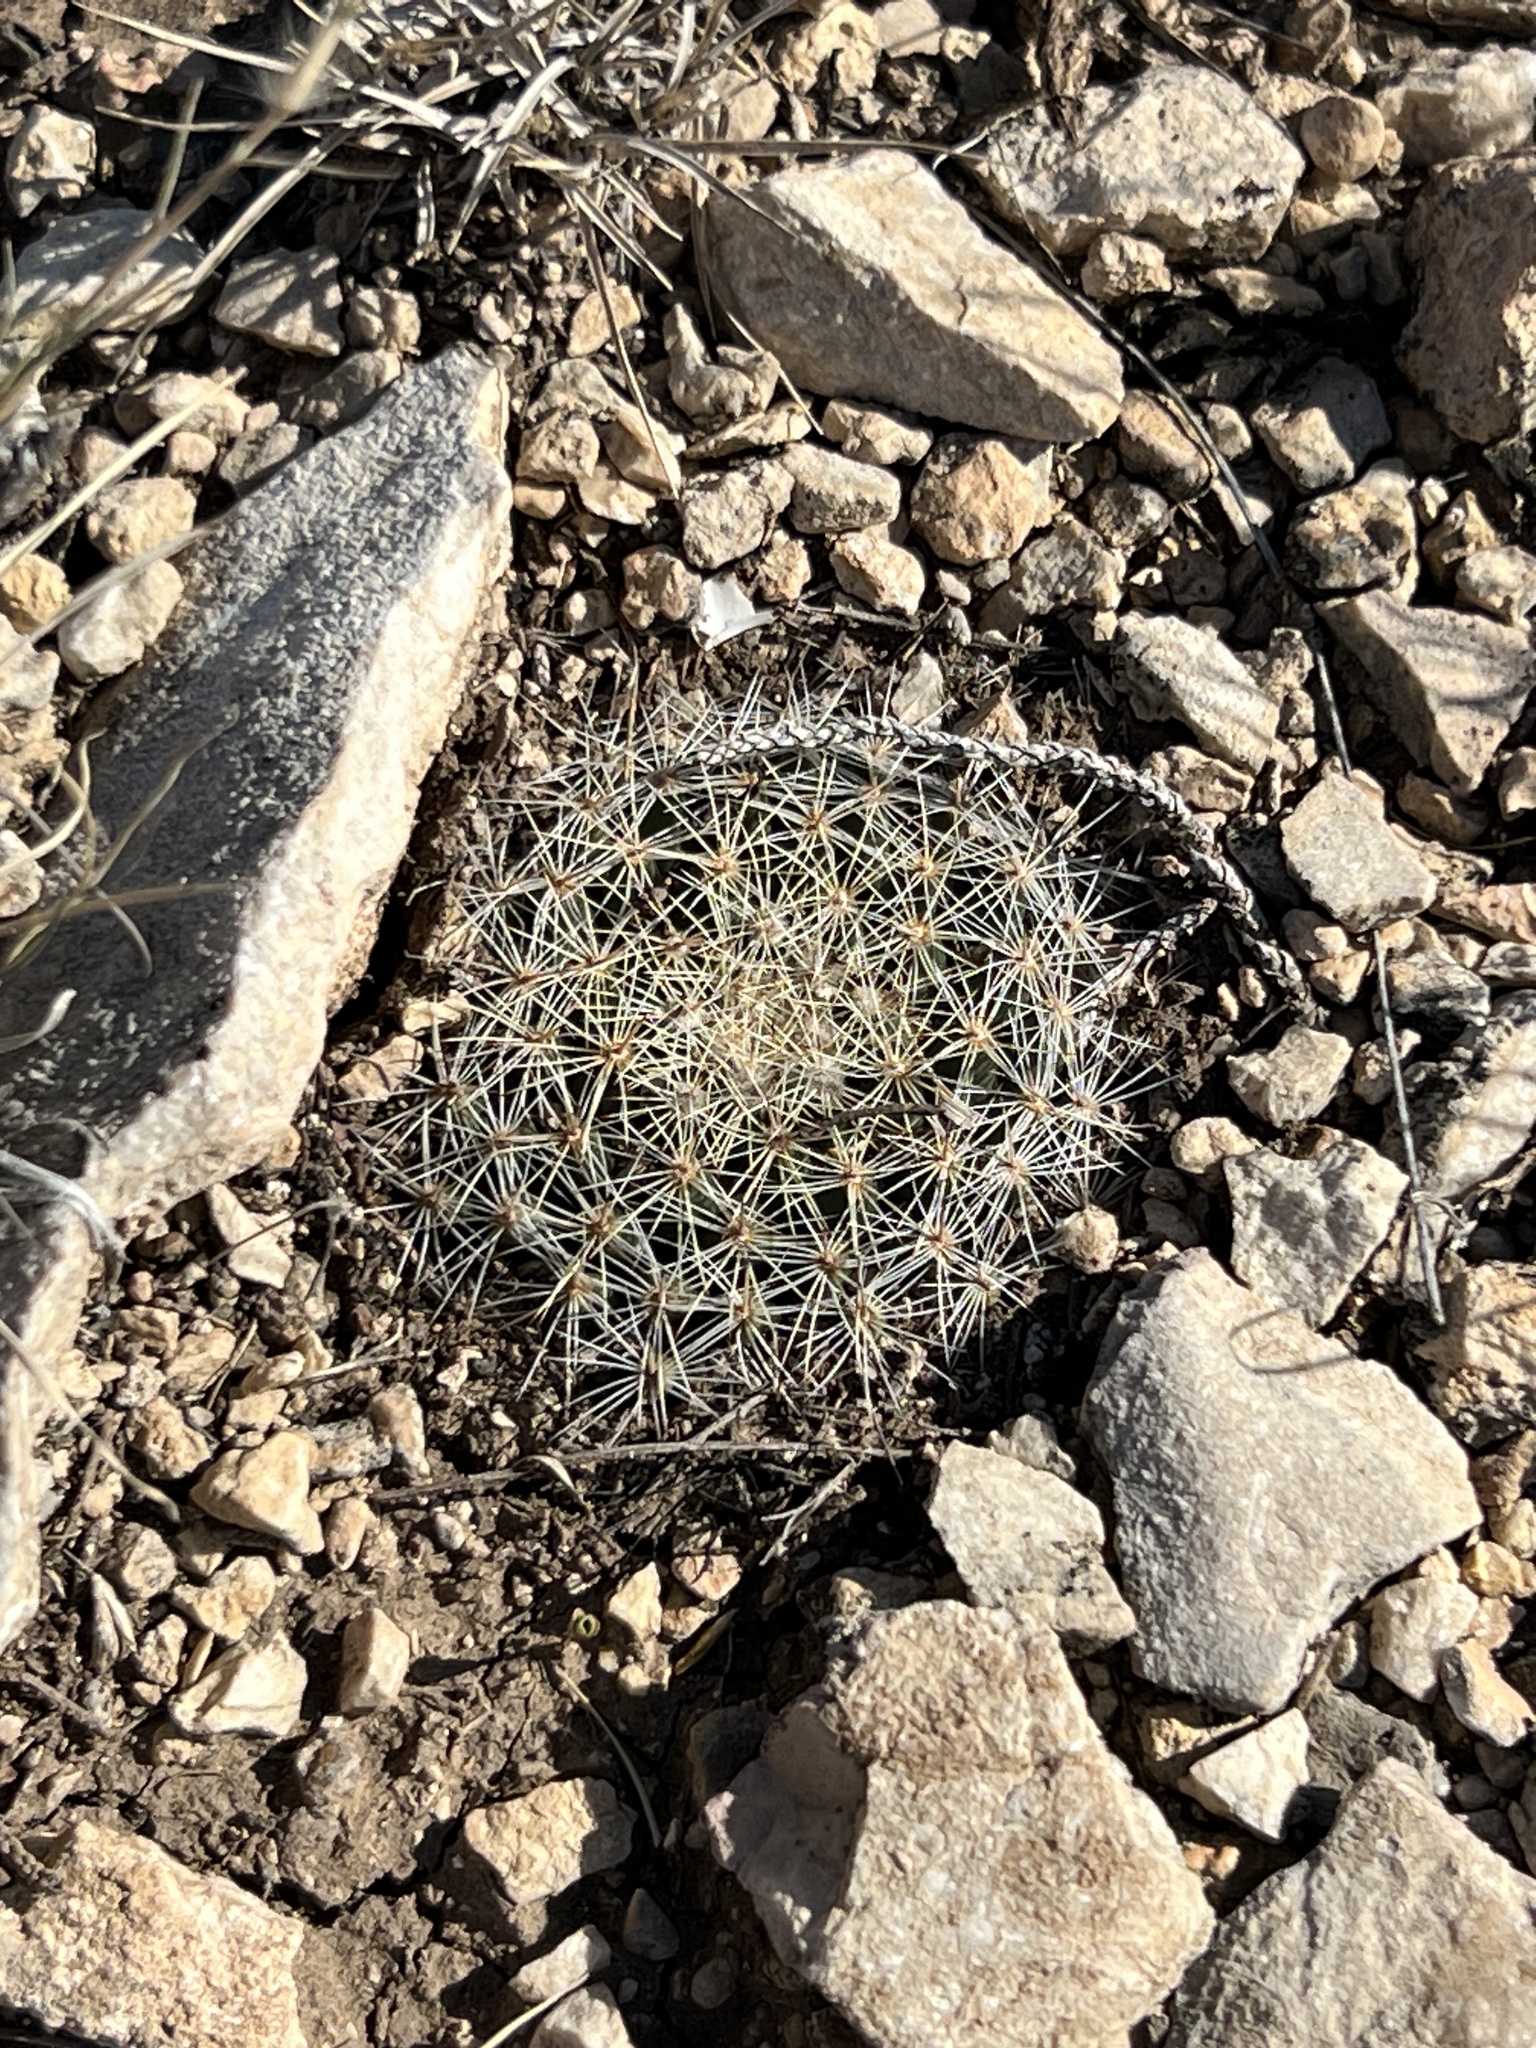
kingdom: Plantae
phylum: Tracheophyta
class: Magnoliopsida
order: Caryophyllales
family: Cactaceae
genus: Mammillaria
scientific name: Mammillaria heyderi
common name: Little nipple cactus
